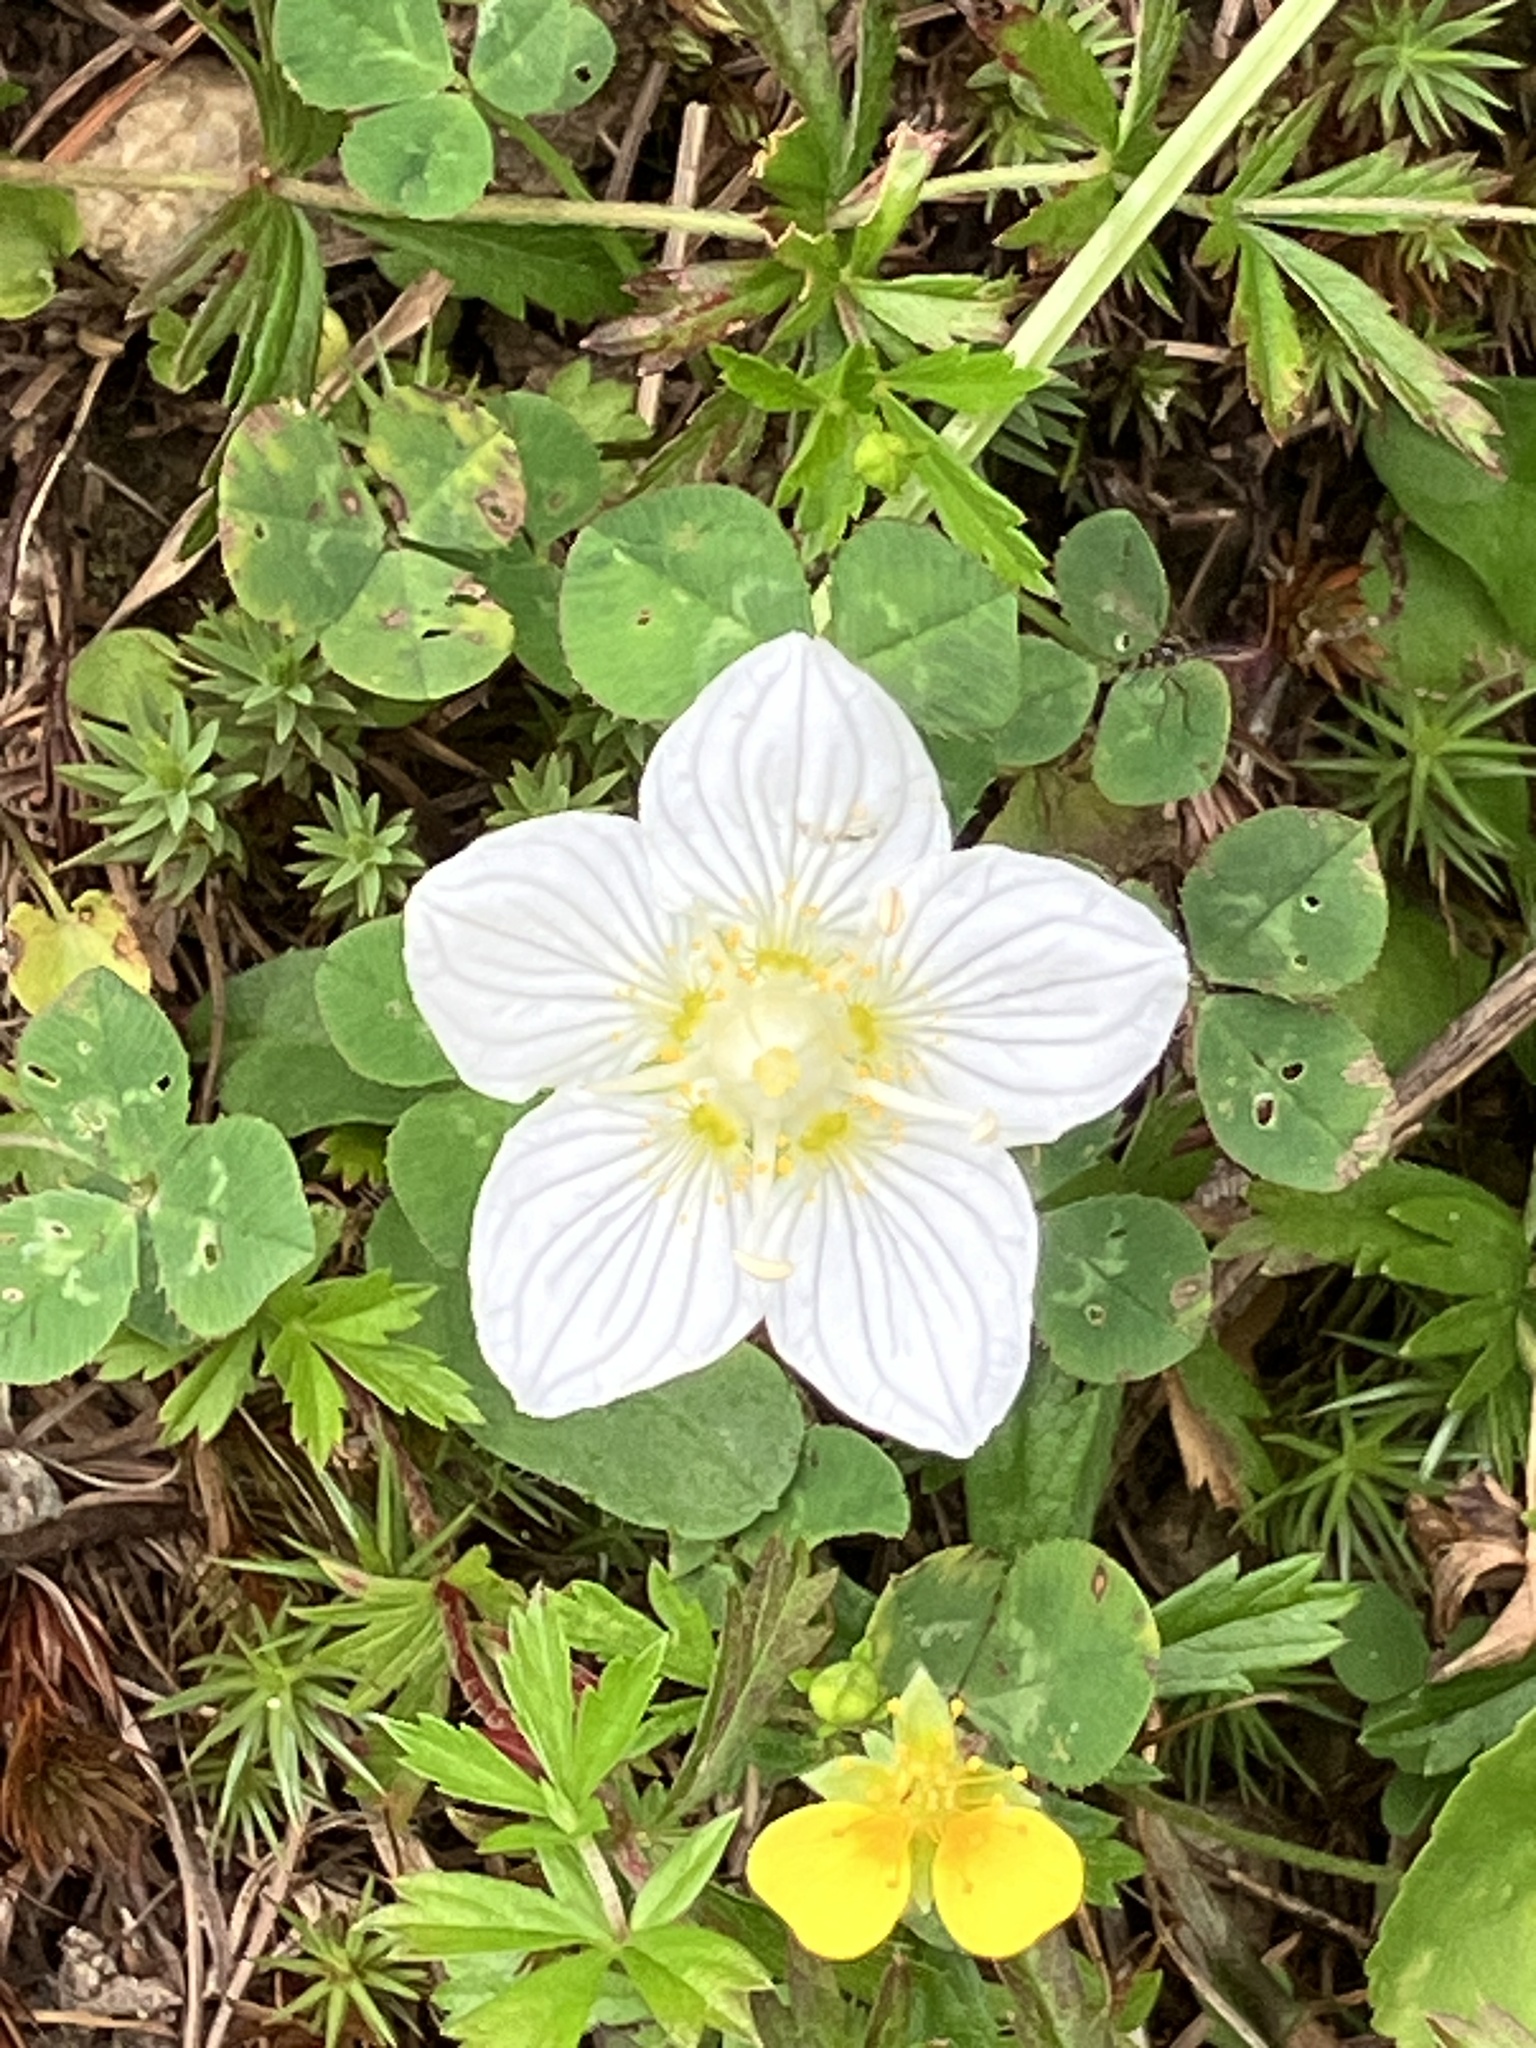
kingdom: Plantae
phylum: Tracheophyta
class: Magnoliopsida
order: Celastrales
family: Parnassiaceae
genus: Parnassia
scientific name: Parnassia palustris
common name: Grass-of-parnassus
